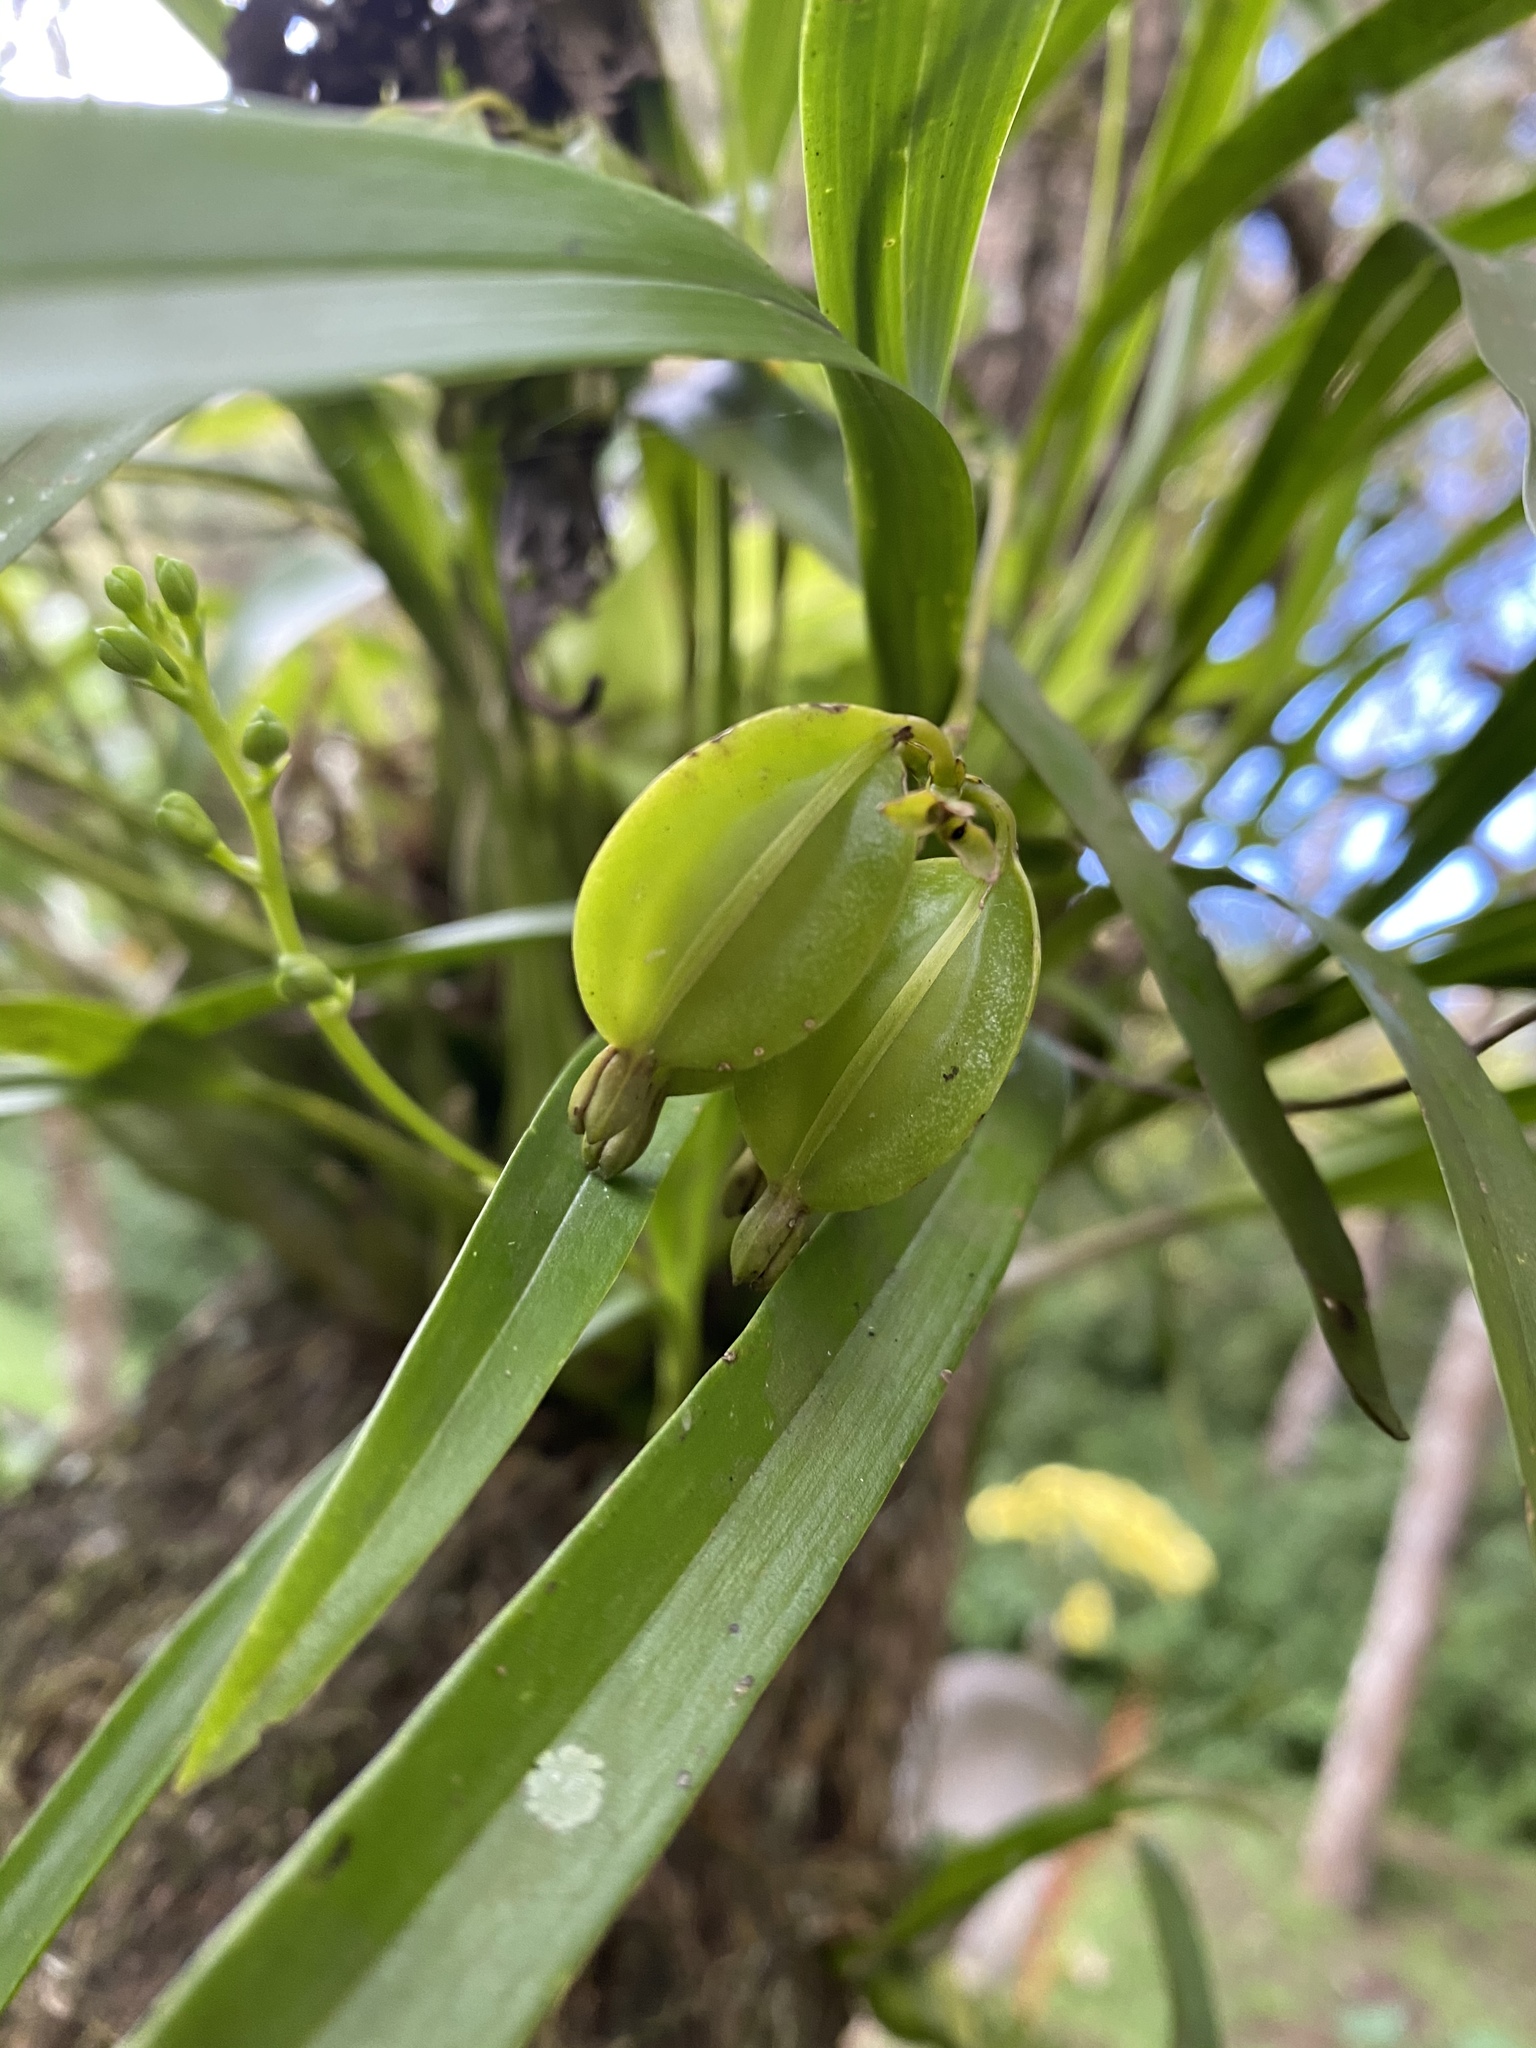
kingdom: Plantae
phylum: Tracheophyta
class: Liliopsida
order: Asparagales
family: Orchidaceae
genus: Prosthechea
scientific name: Prosthechea ochracea
